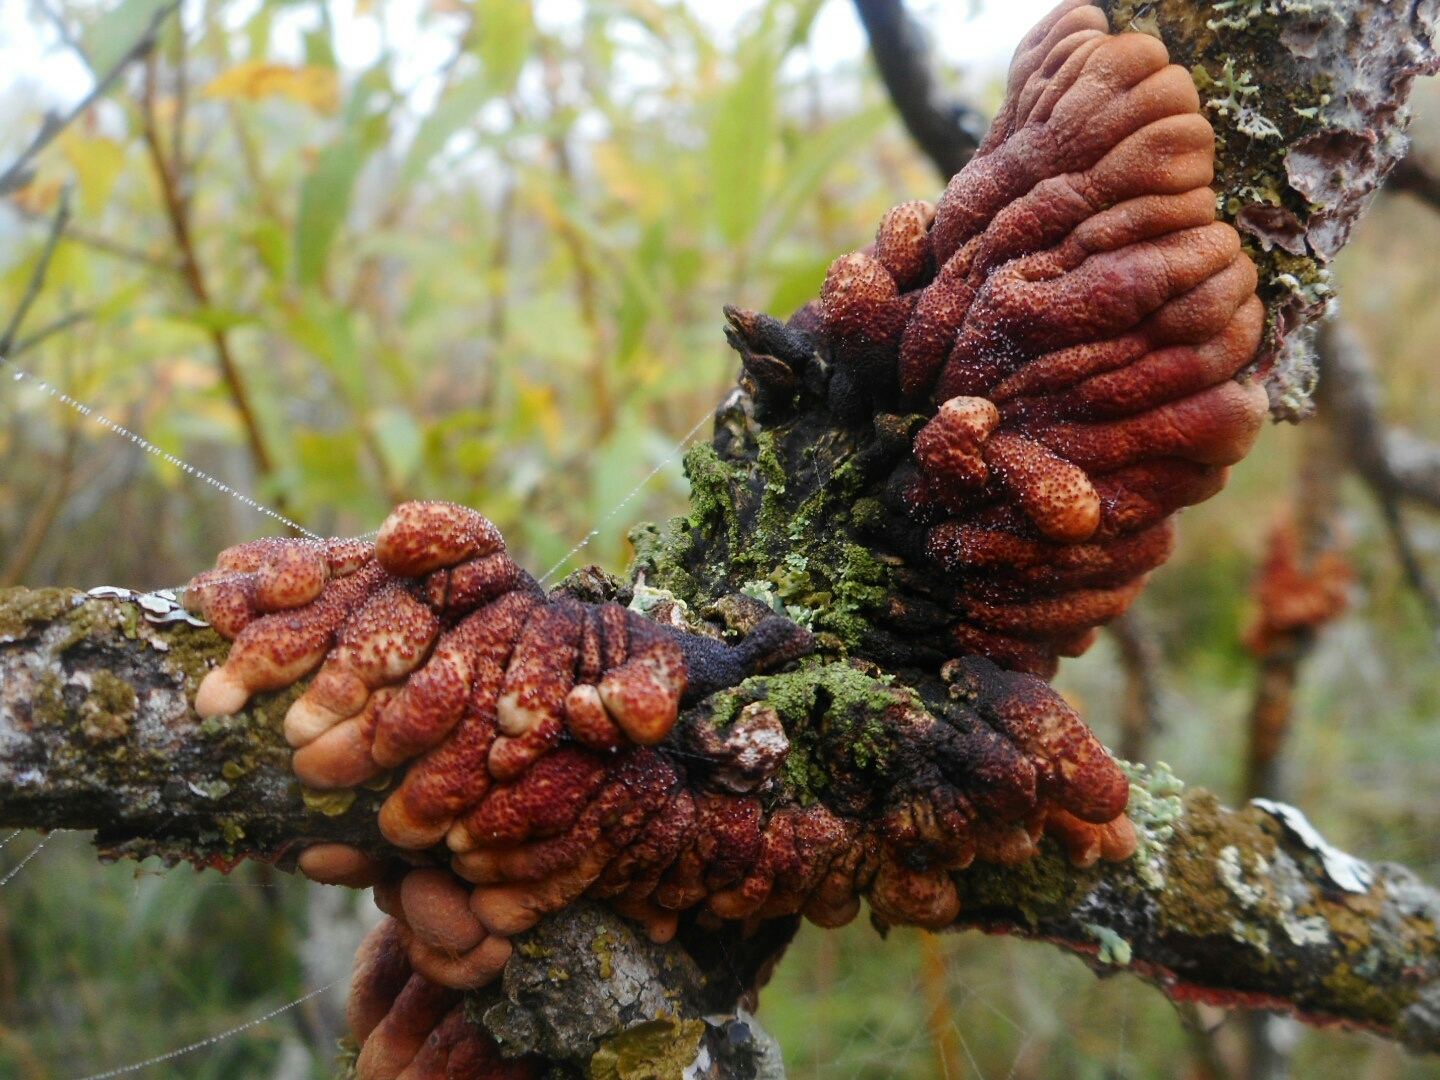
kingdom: Fungi
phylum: Ascomycota
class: Sordariomycetes
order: Hypocreales
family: Hypocreaceae
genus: Hypocreopsis
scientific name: Hypocreopsis lichenoides
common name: Willow gloves
